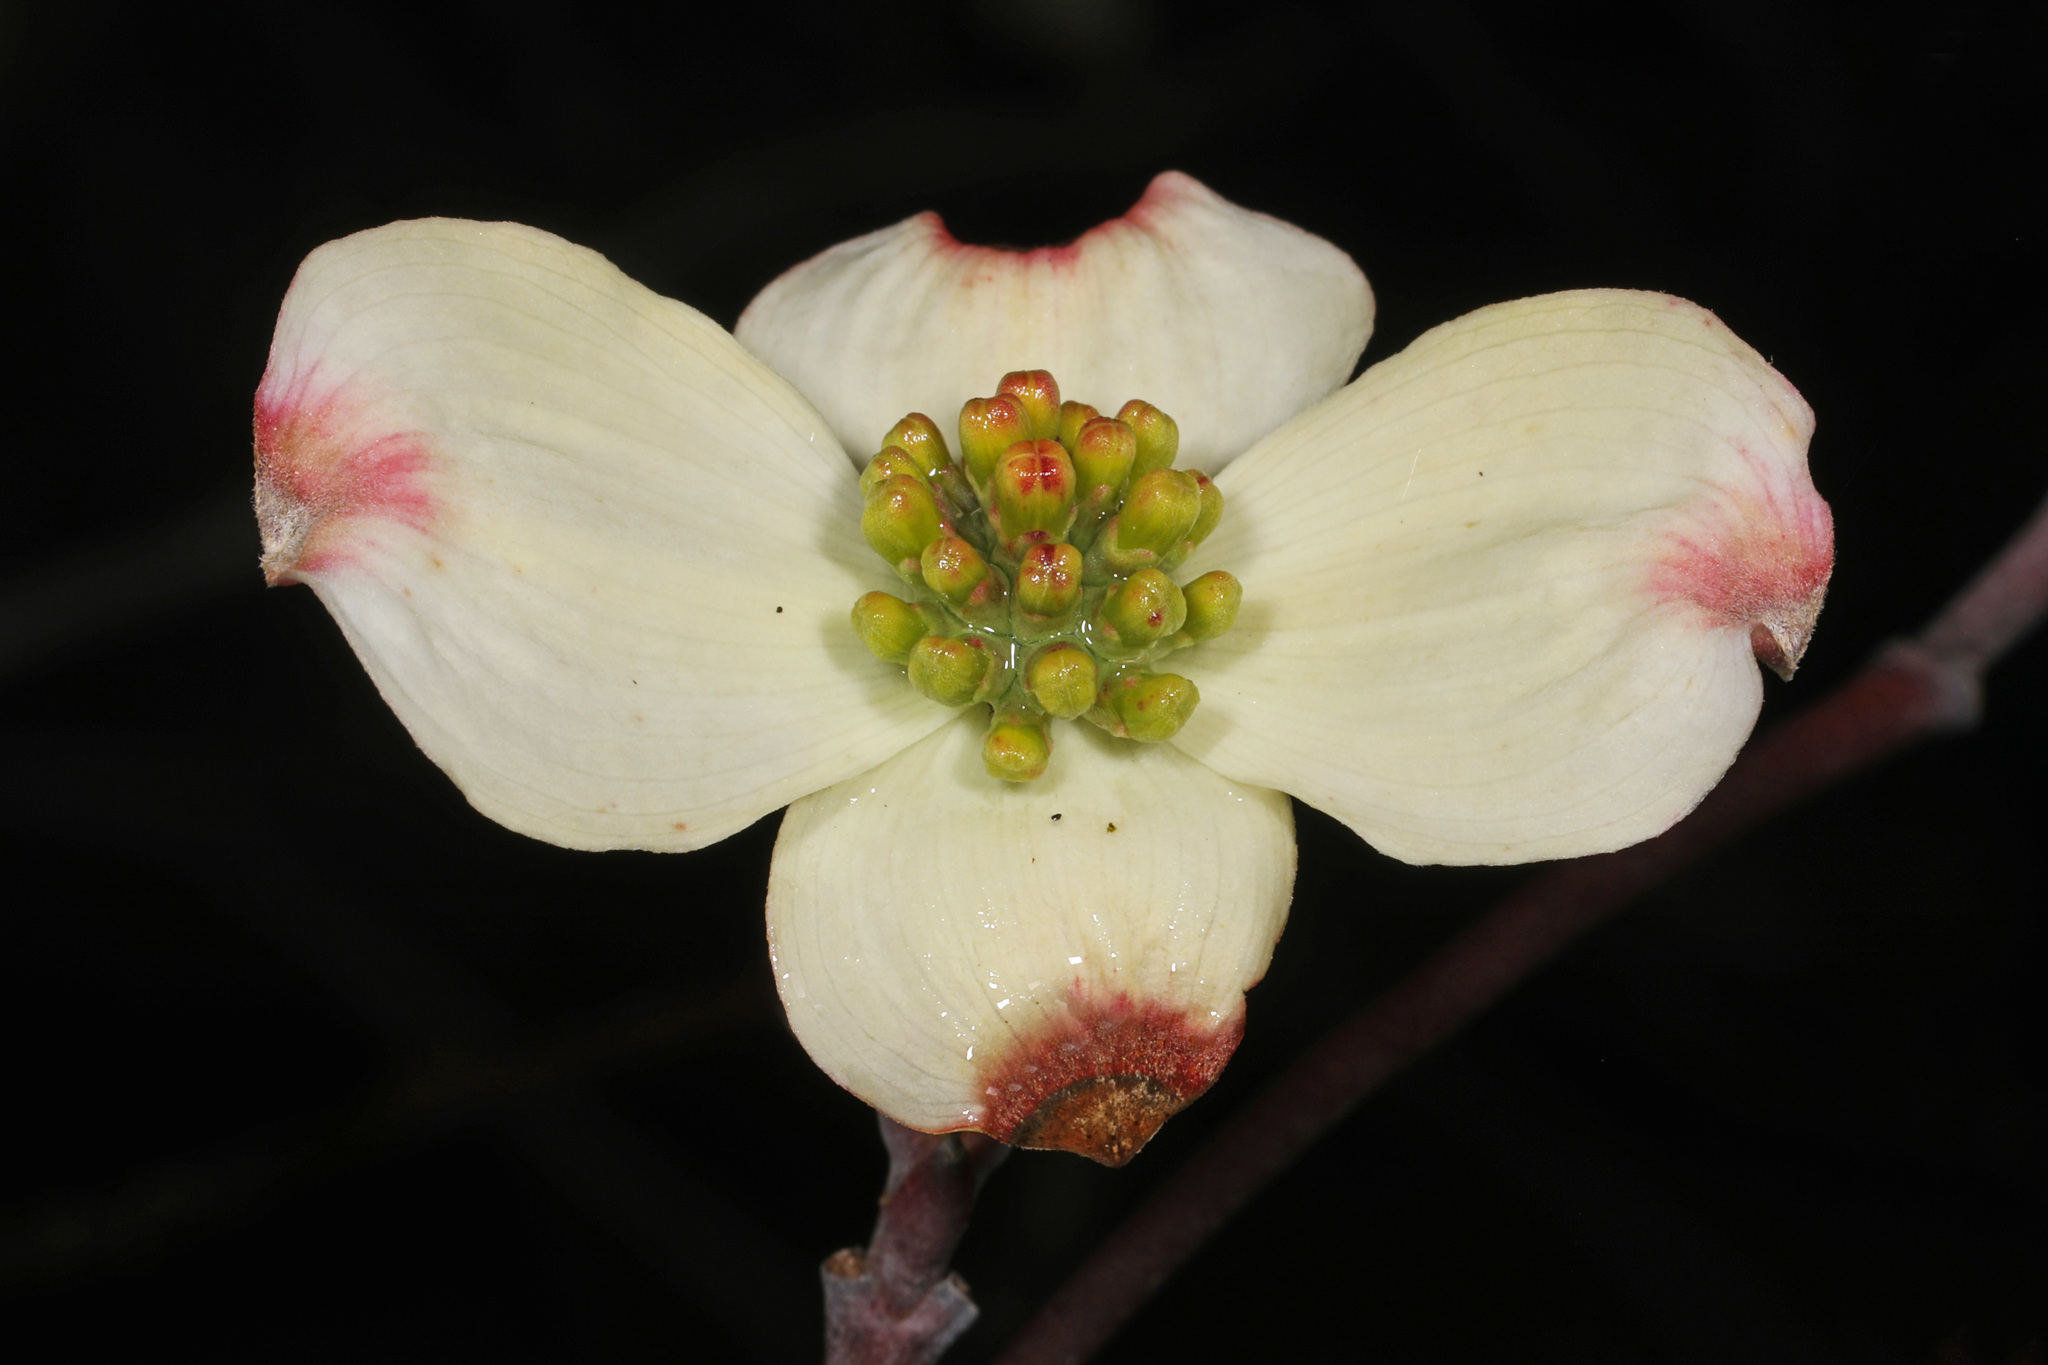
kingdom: Plantae
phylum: Tracheophyta
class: Magnoliopsida
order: Cornales
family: Cornaceae
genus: Cornus
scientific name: Cornus florida
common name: Flowering dogwood
